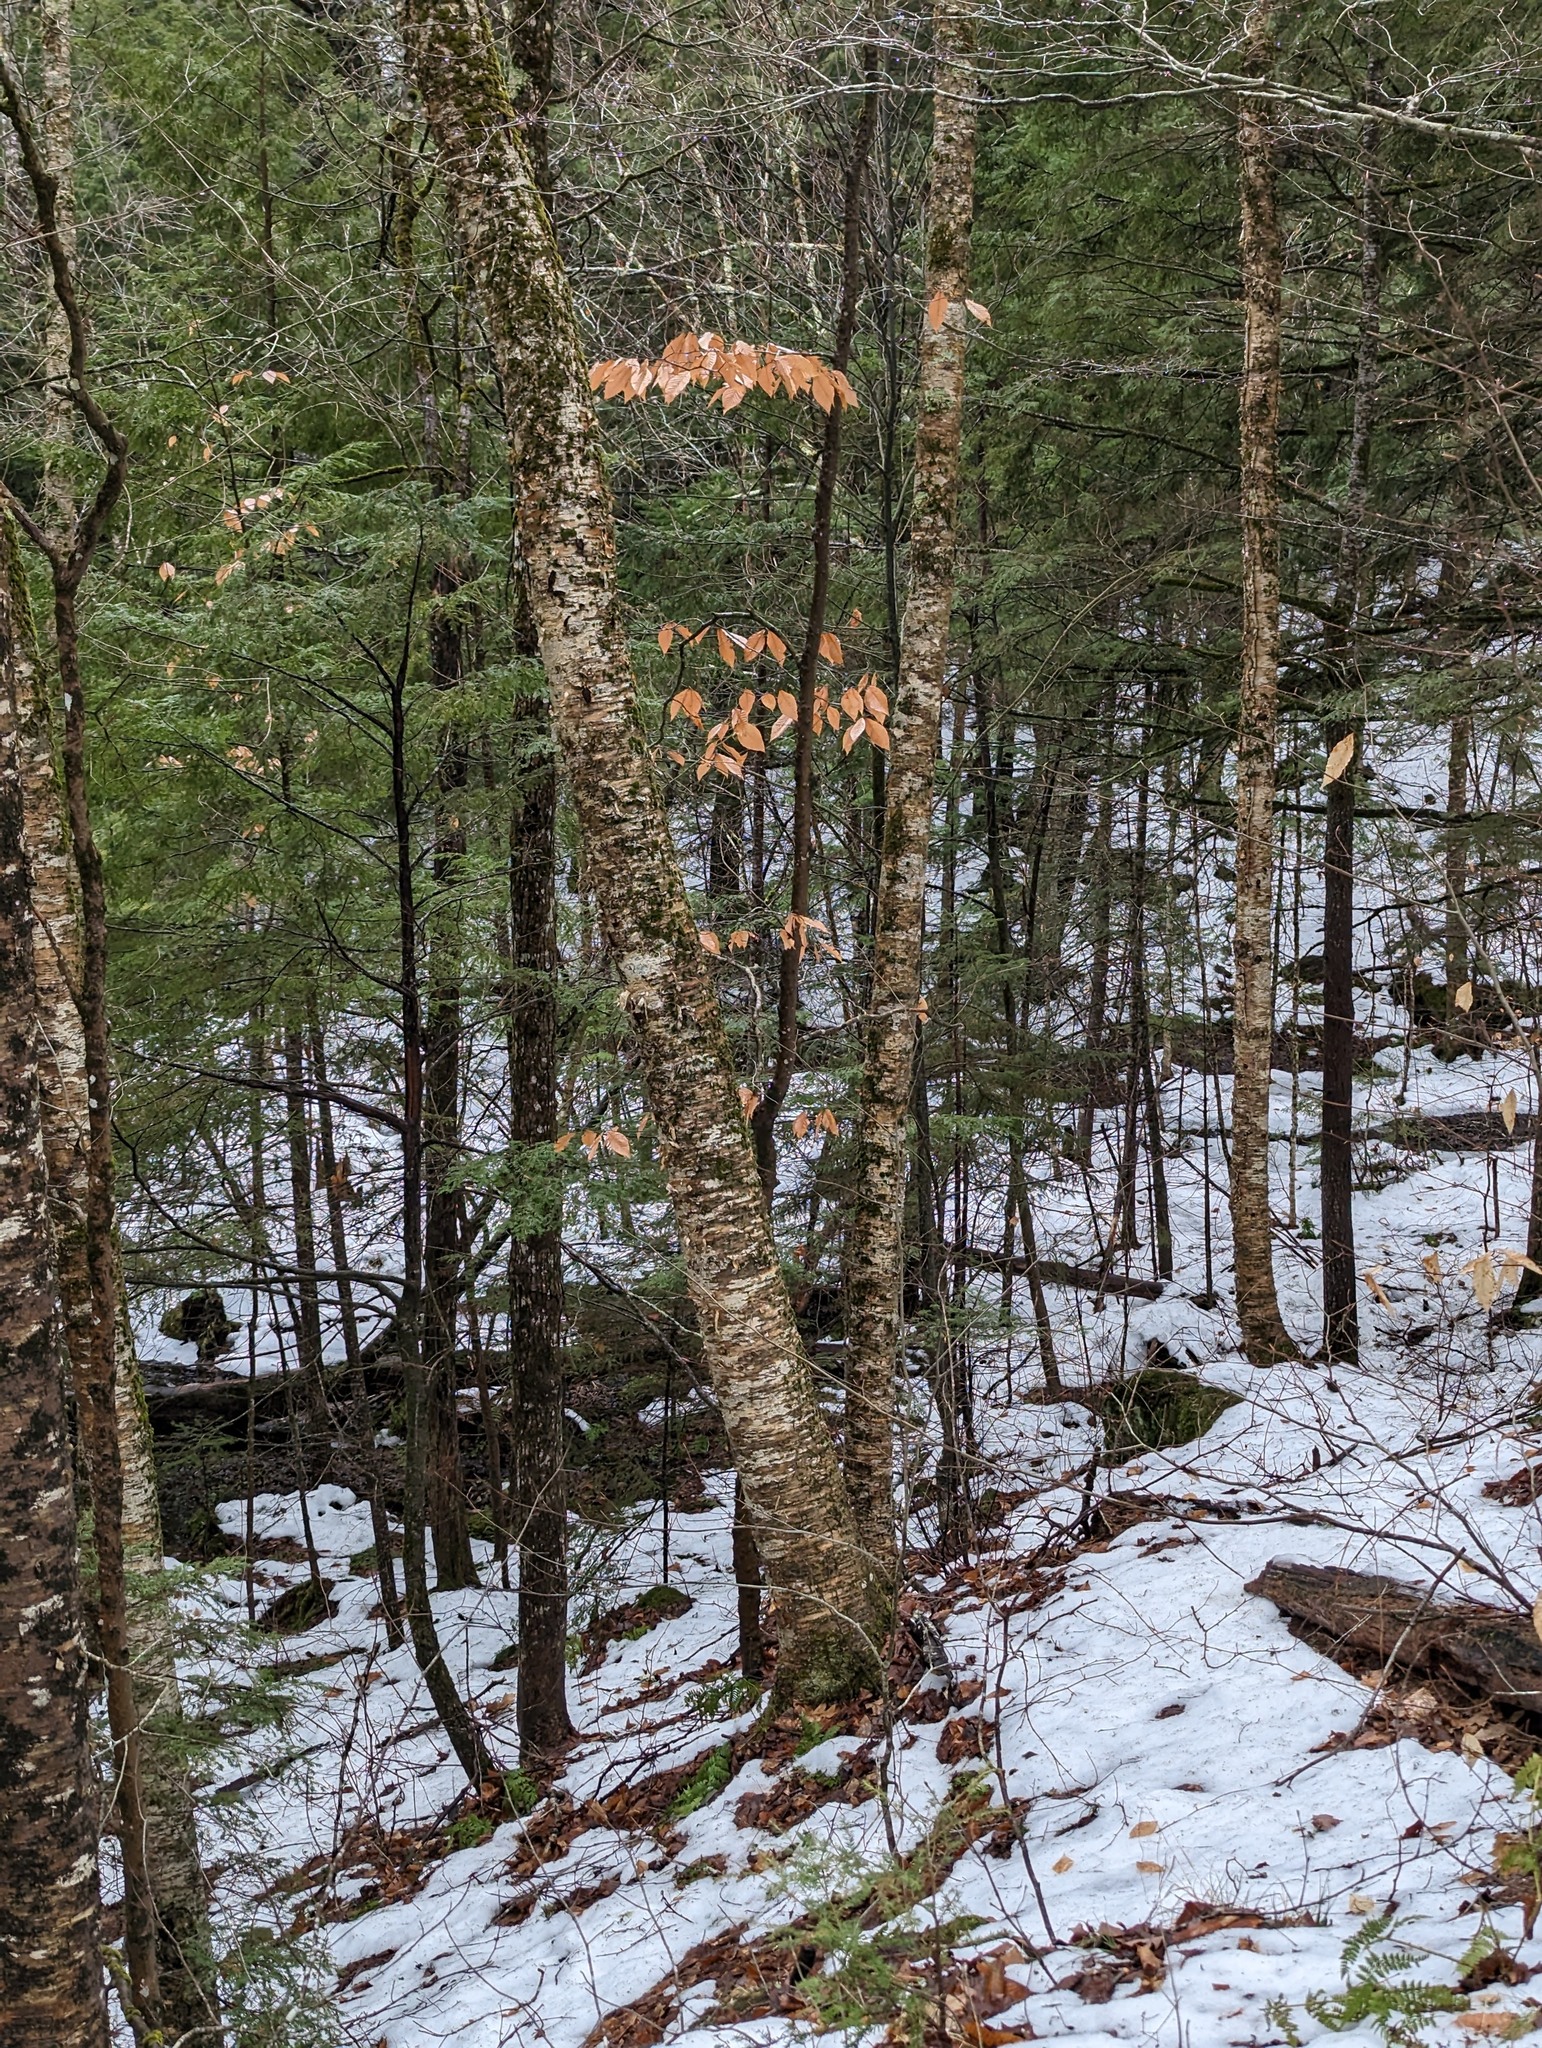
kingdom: Plantae
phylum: Tracheophyta
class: Magnoliopsida
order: Fagales
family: Betulaceae
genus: Betula
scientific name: Betula alleghaniensis
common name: Yellow birch
